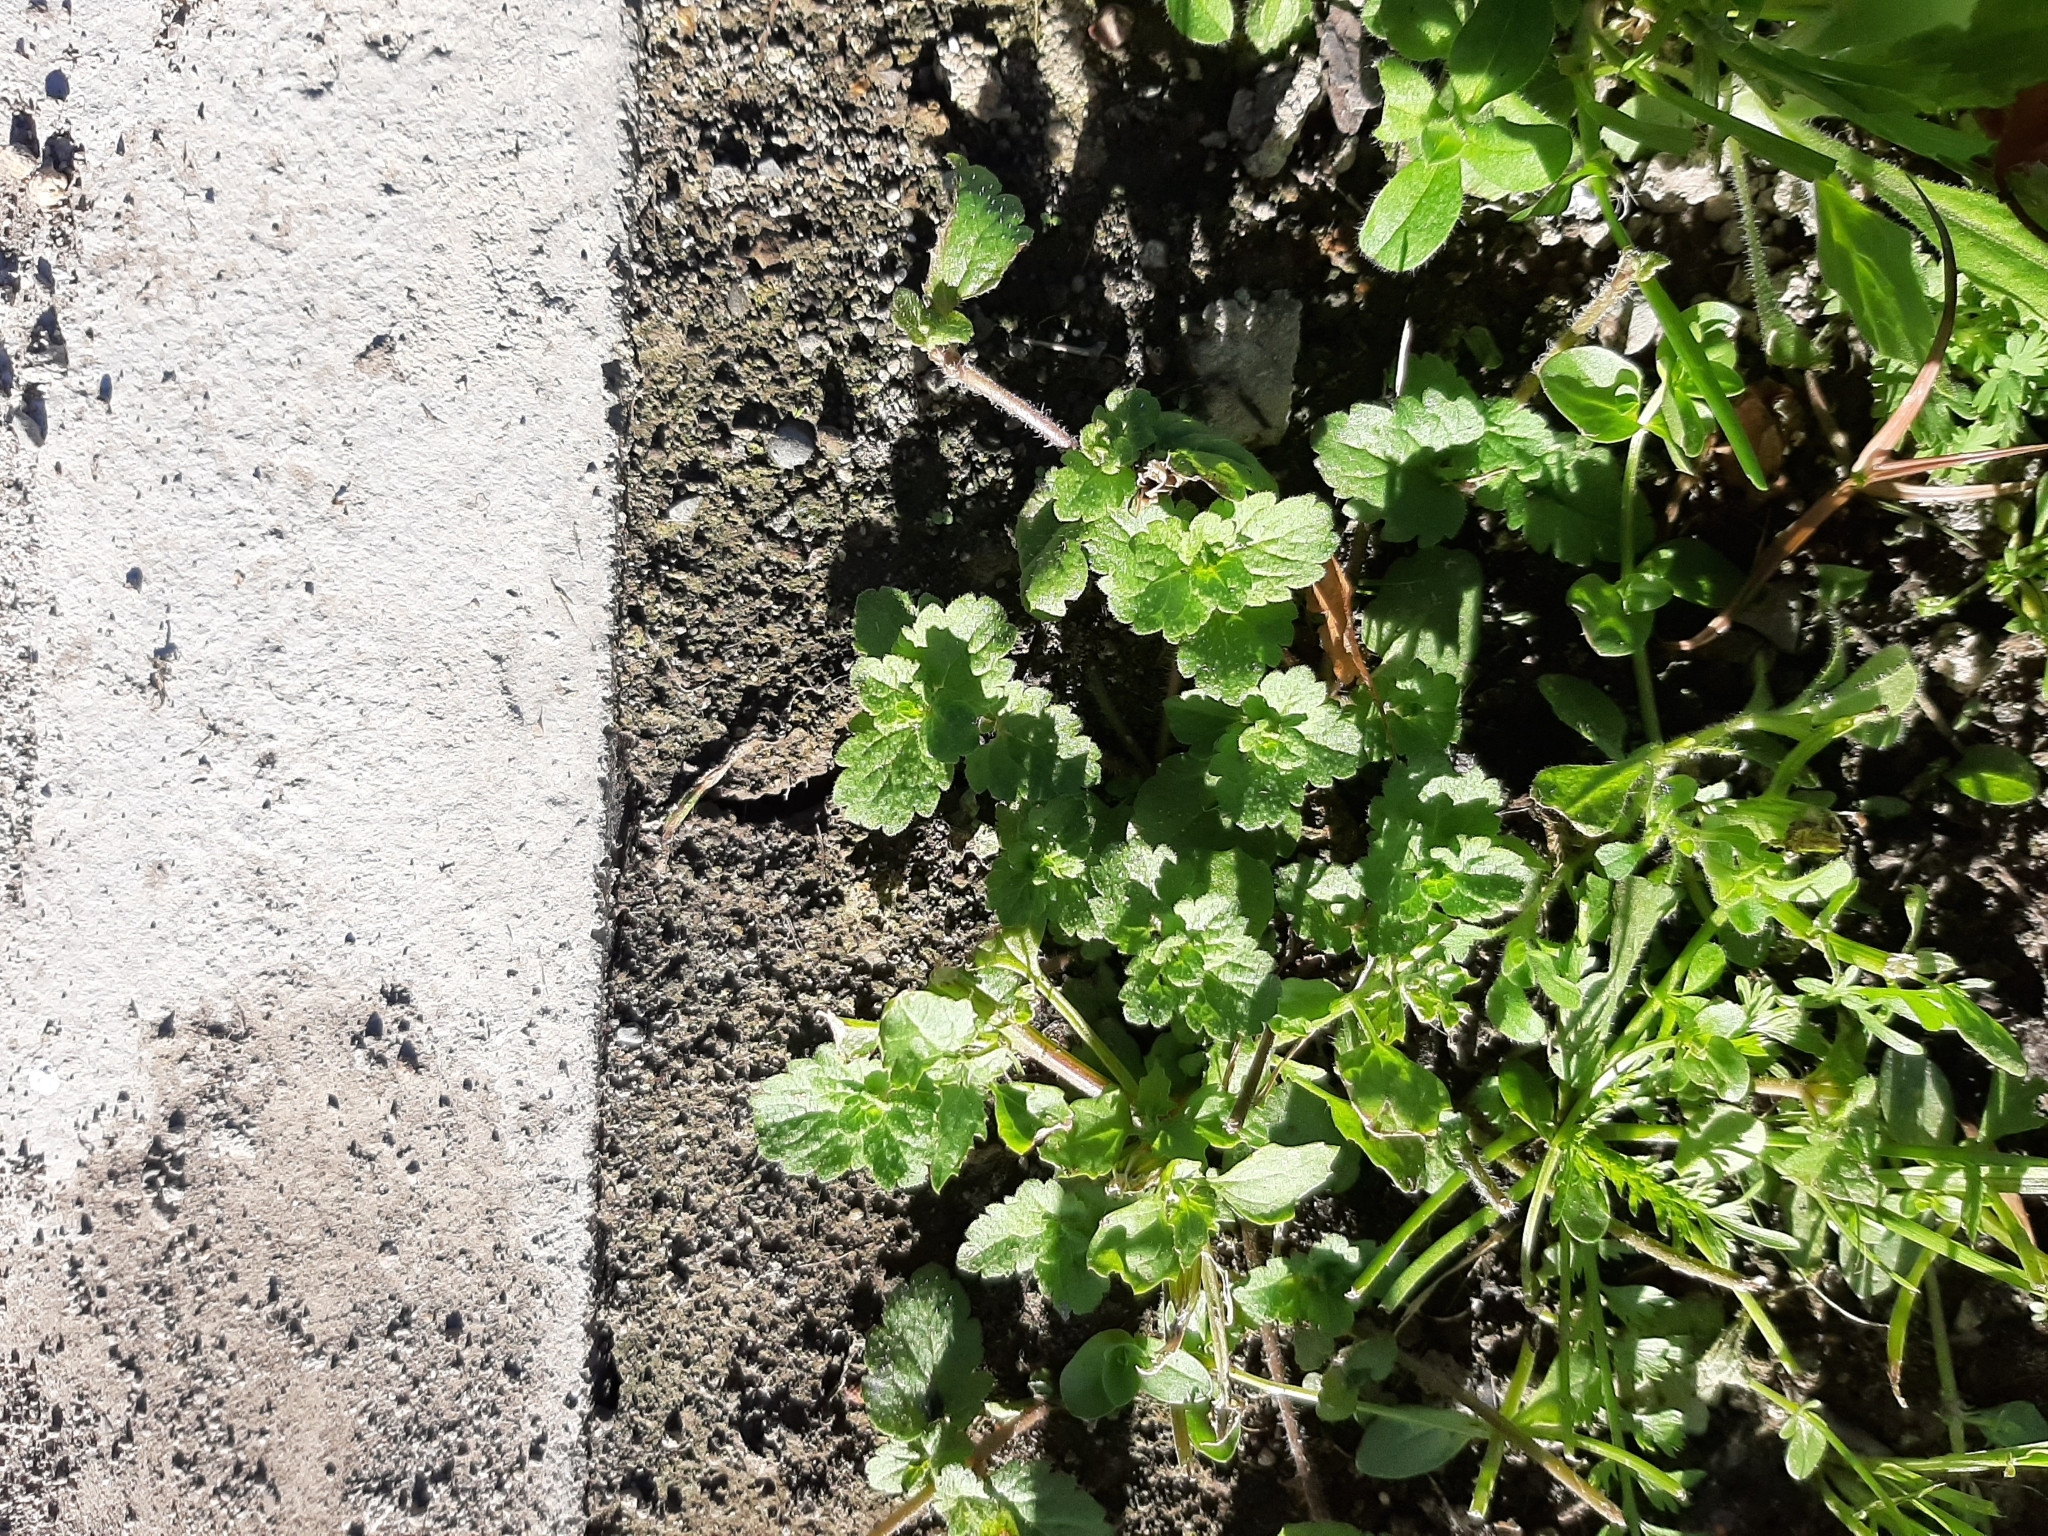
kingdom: Plantae
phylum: Tracheophyta
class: Magnoliopsida
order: Lamiales
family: Plantaginaceae
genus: Veronica
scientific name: Veronica persica
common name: Common field-speedwell
